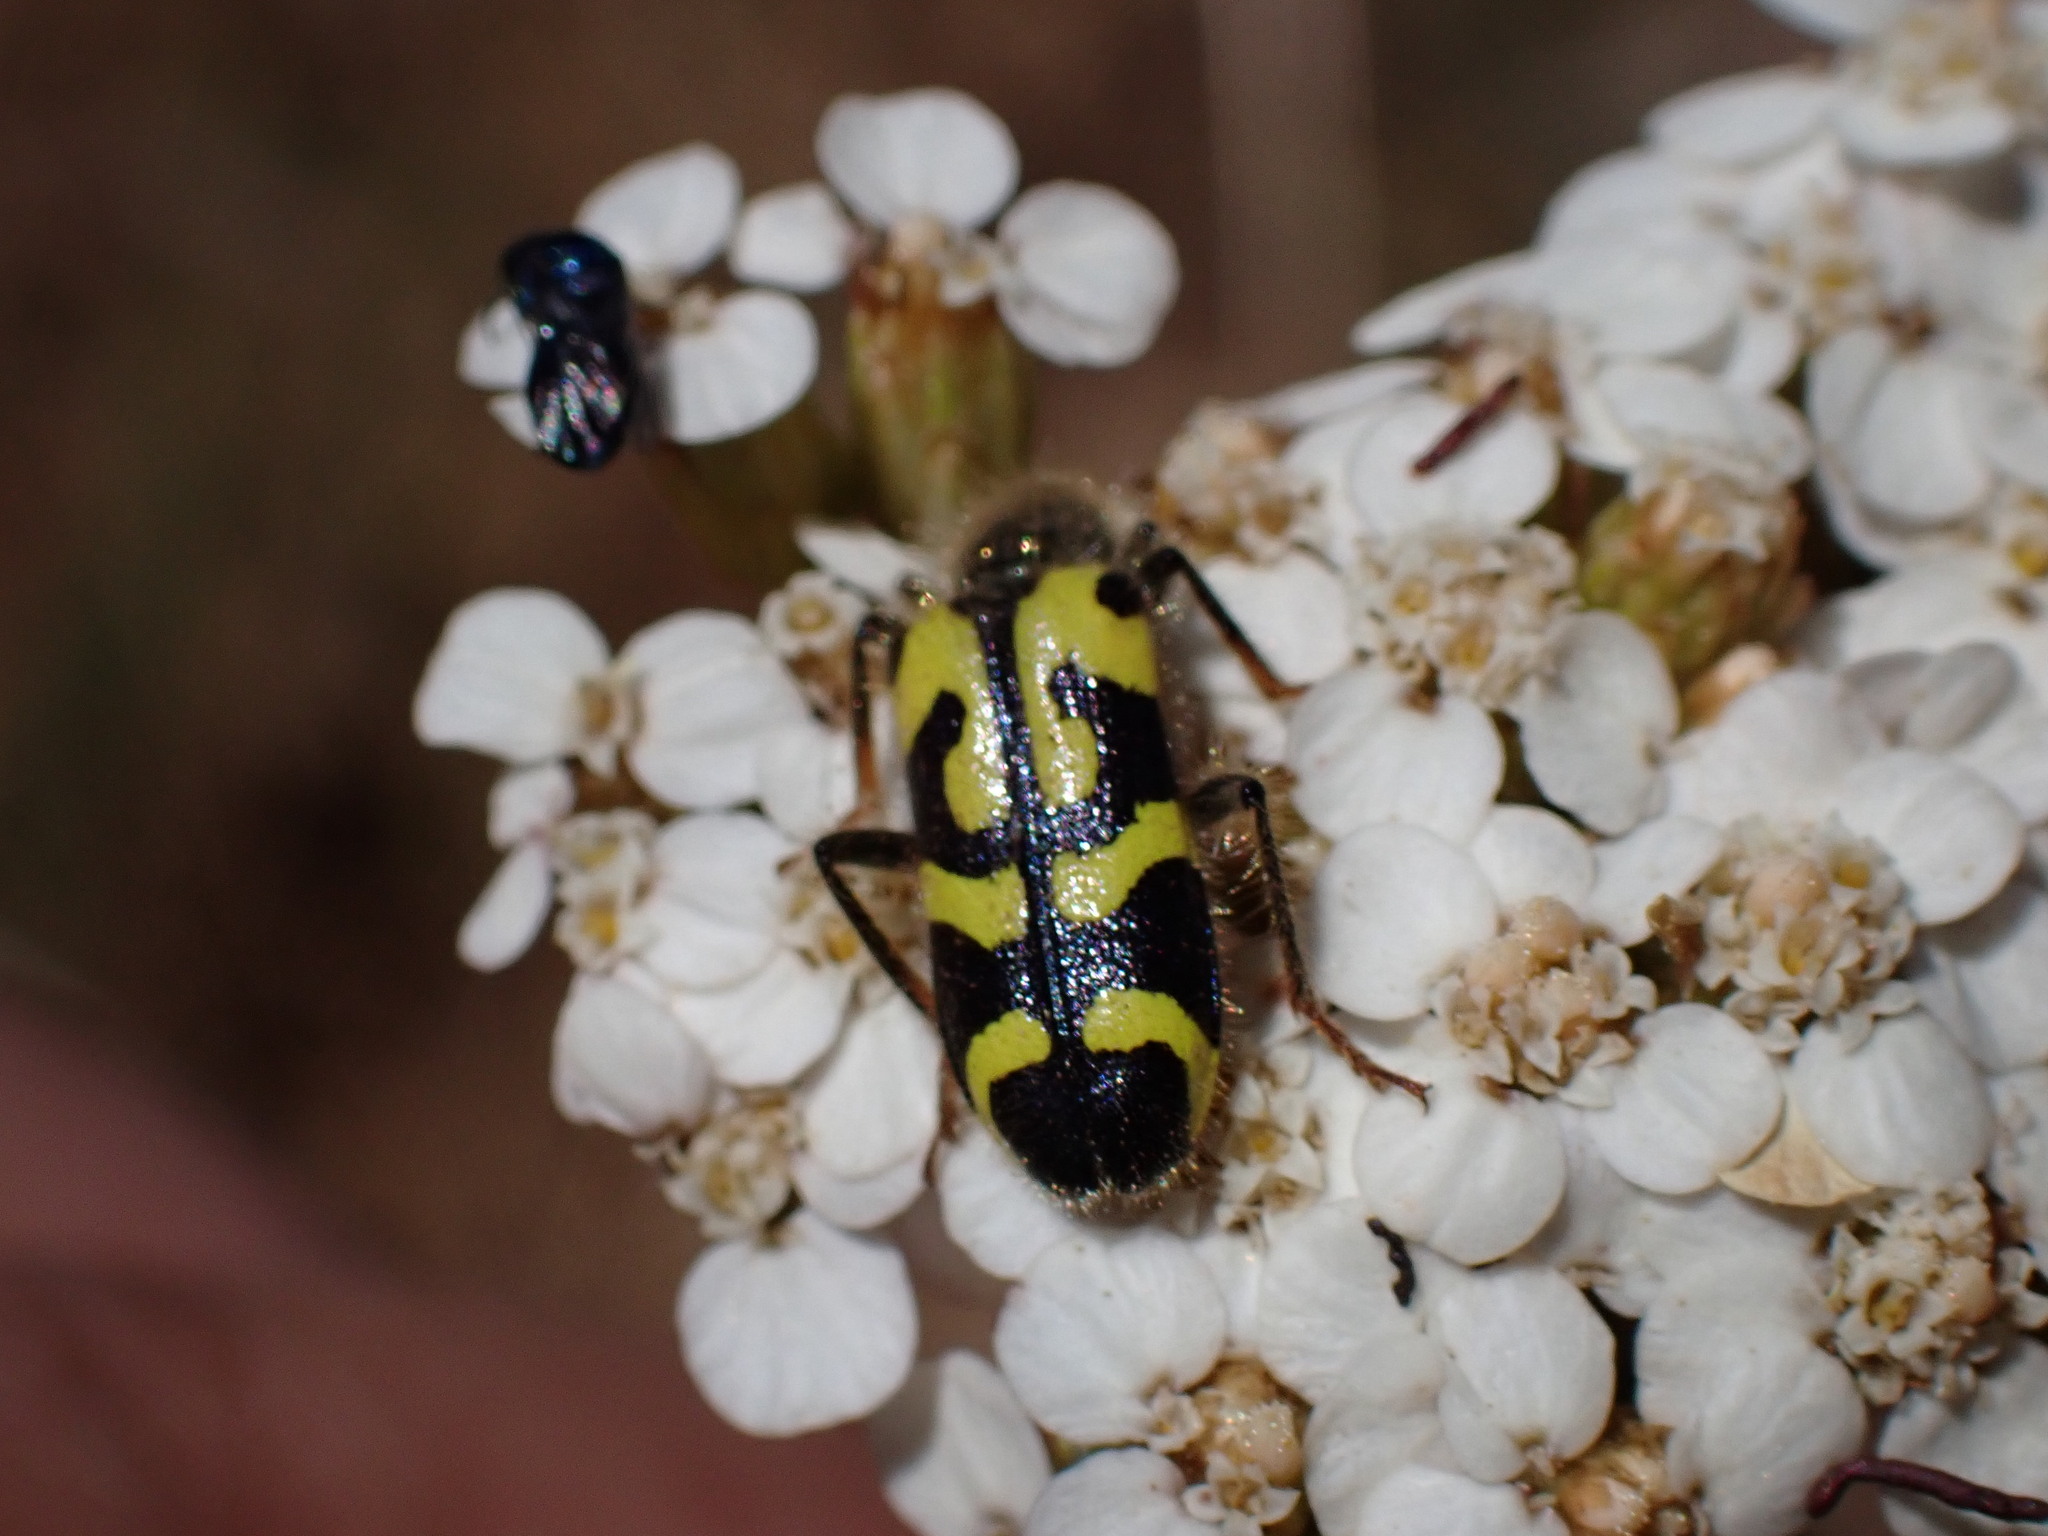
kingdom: Animalia
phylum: Arthropoda
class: Insecta
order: Coleoptera
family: Cleridae
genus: Trichodes
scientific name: Trichodes ornatus
